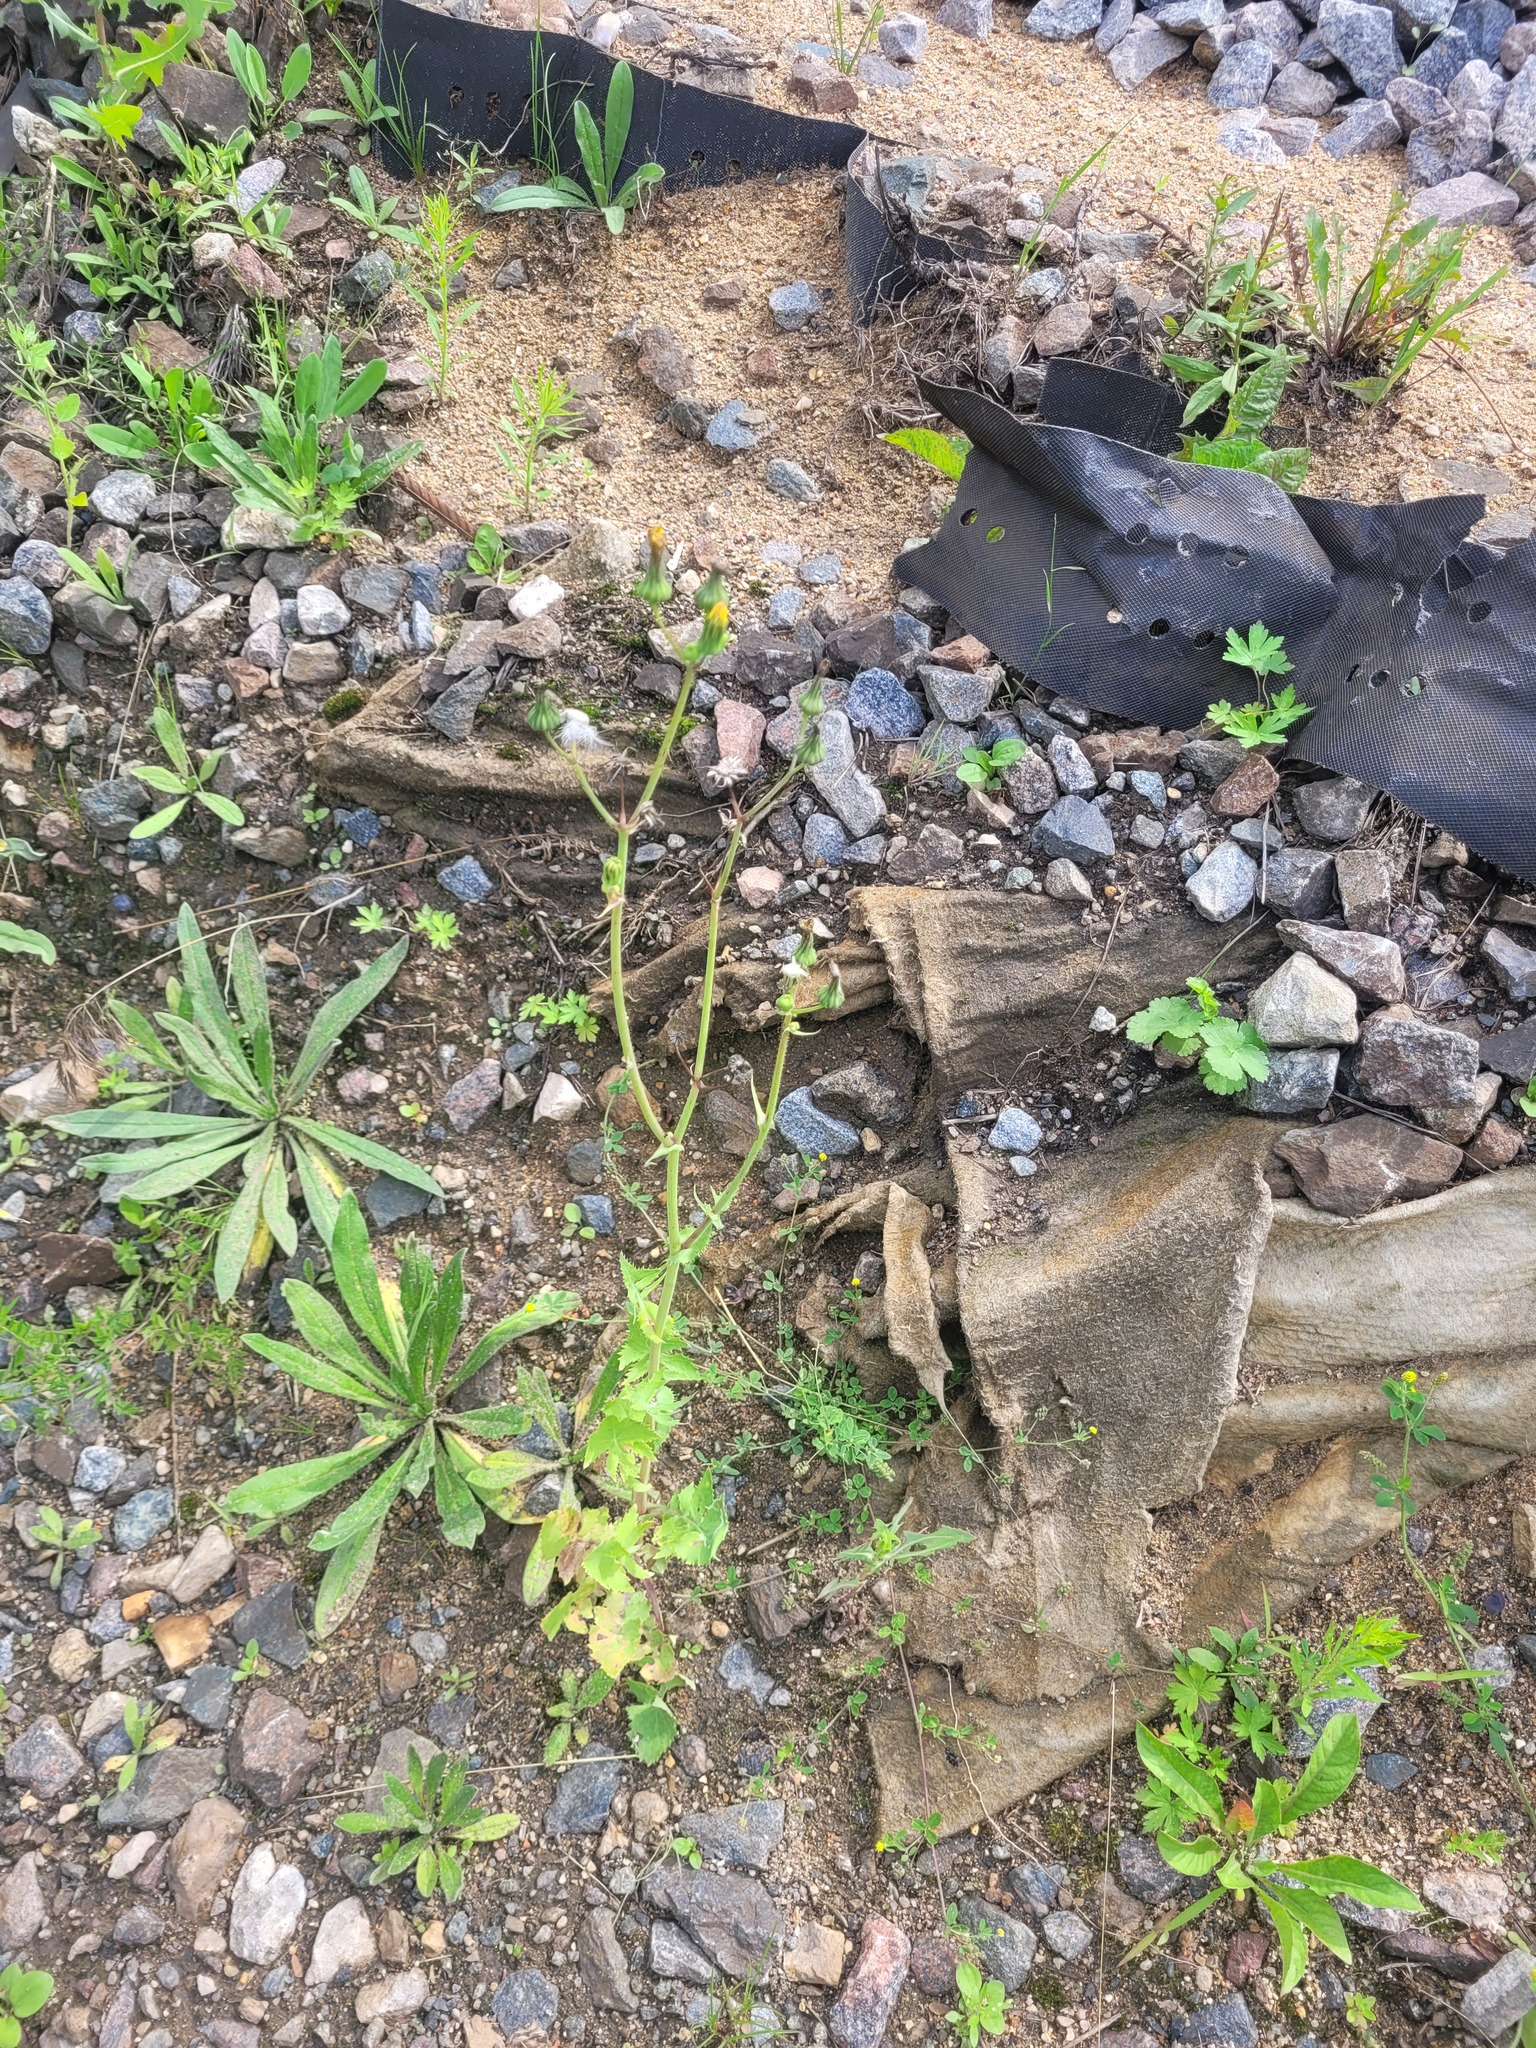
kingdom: Plantae
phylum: Tracheophyta
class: Magnoliopsida
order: Asterales
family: Asteraceae
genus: Sonchus
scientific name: Sonchus oleraceus
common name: Common sowthistle
